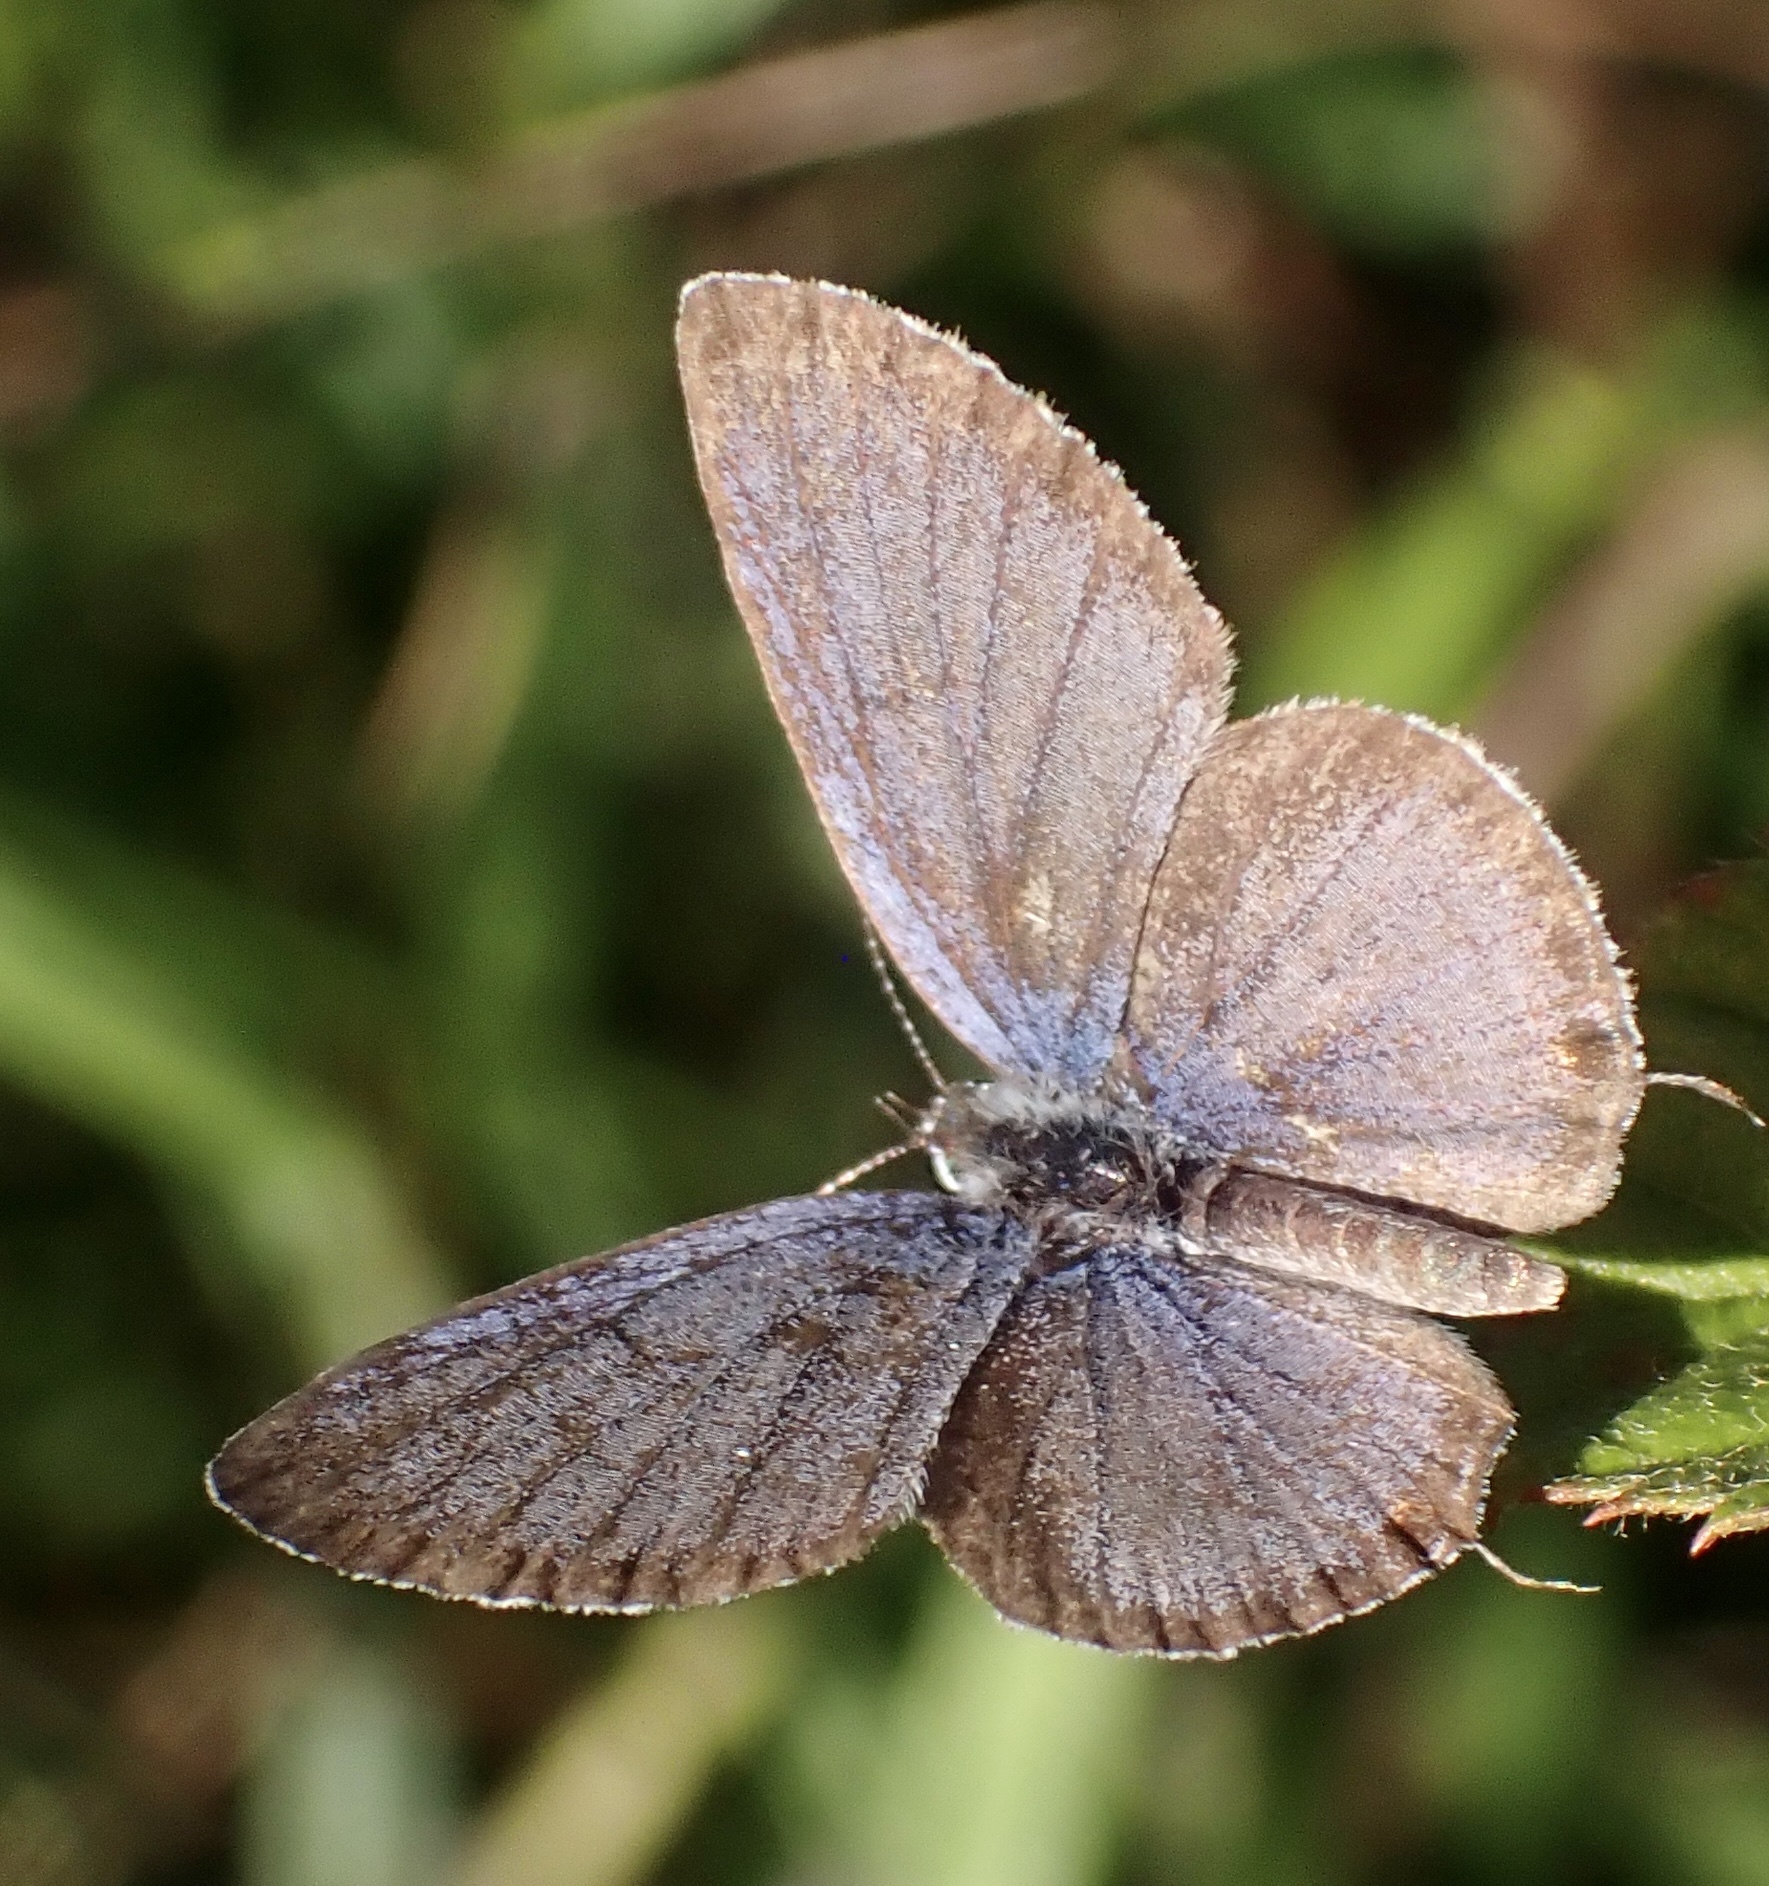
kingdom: Animalia
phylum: Arthropoda
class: Insecta
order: Lepidoptera
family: Lycaenidae
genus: Elkalyce
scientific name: Elkalyce comyntas
